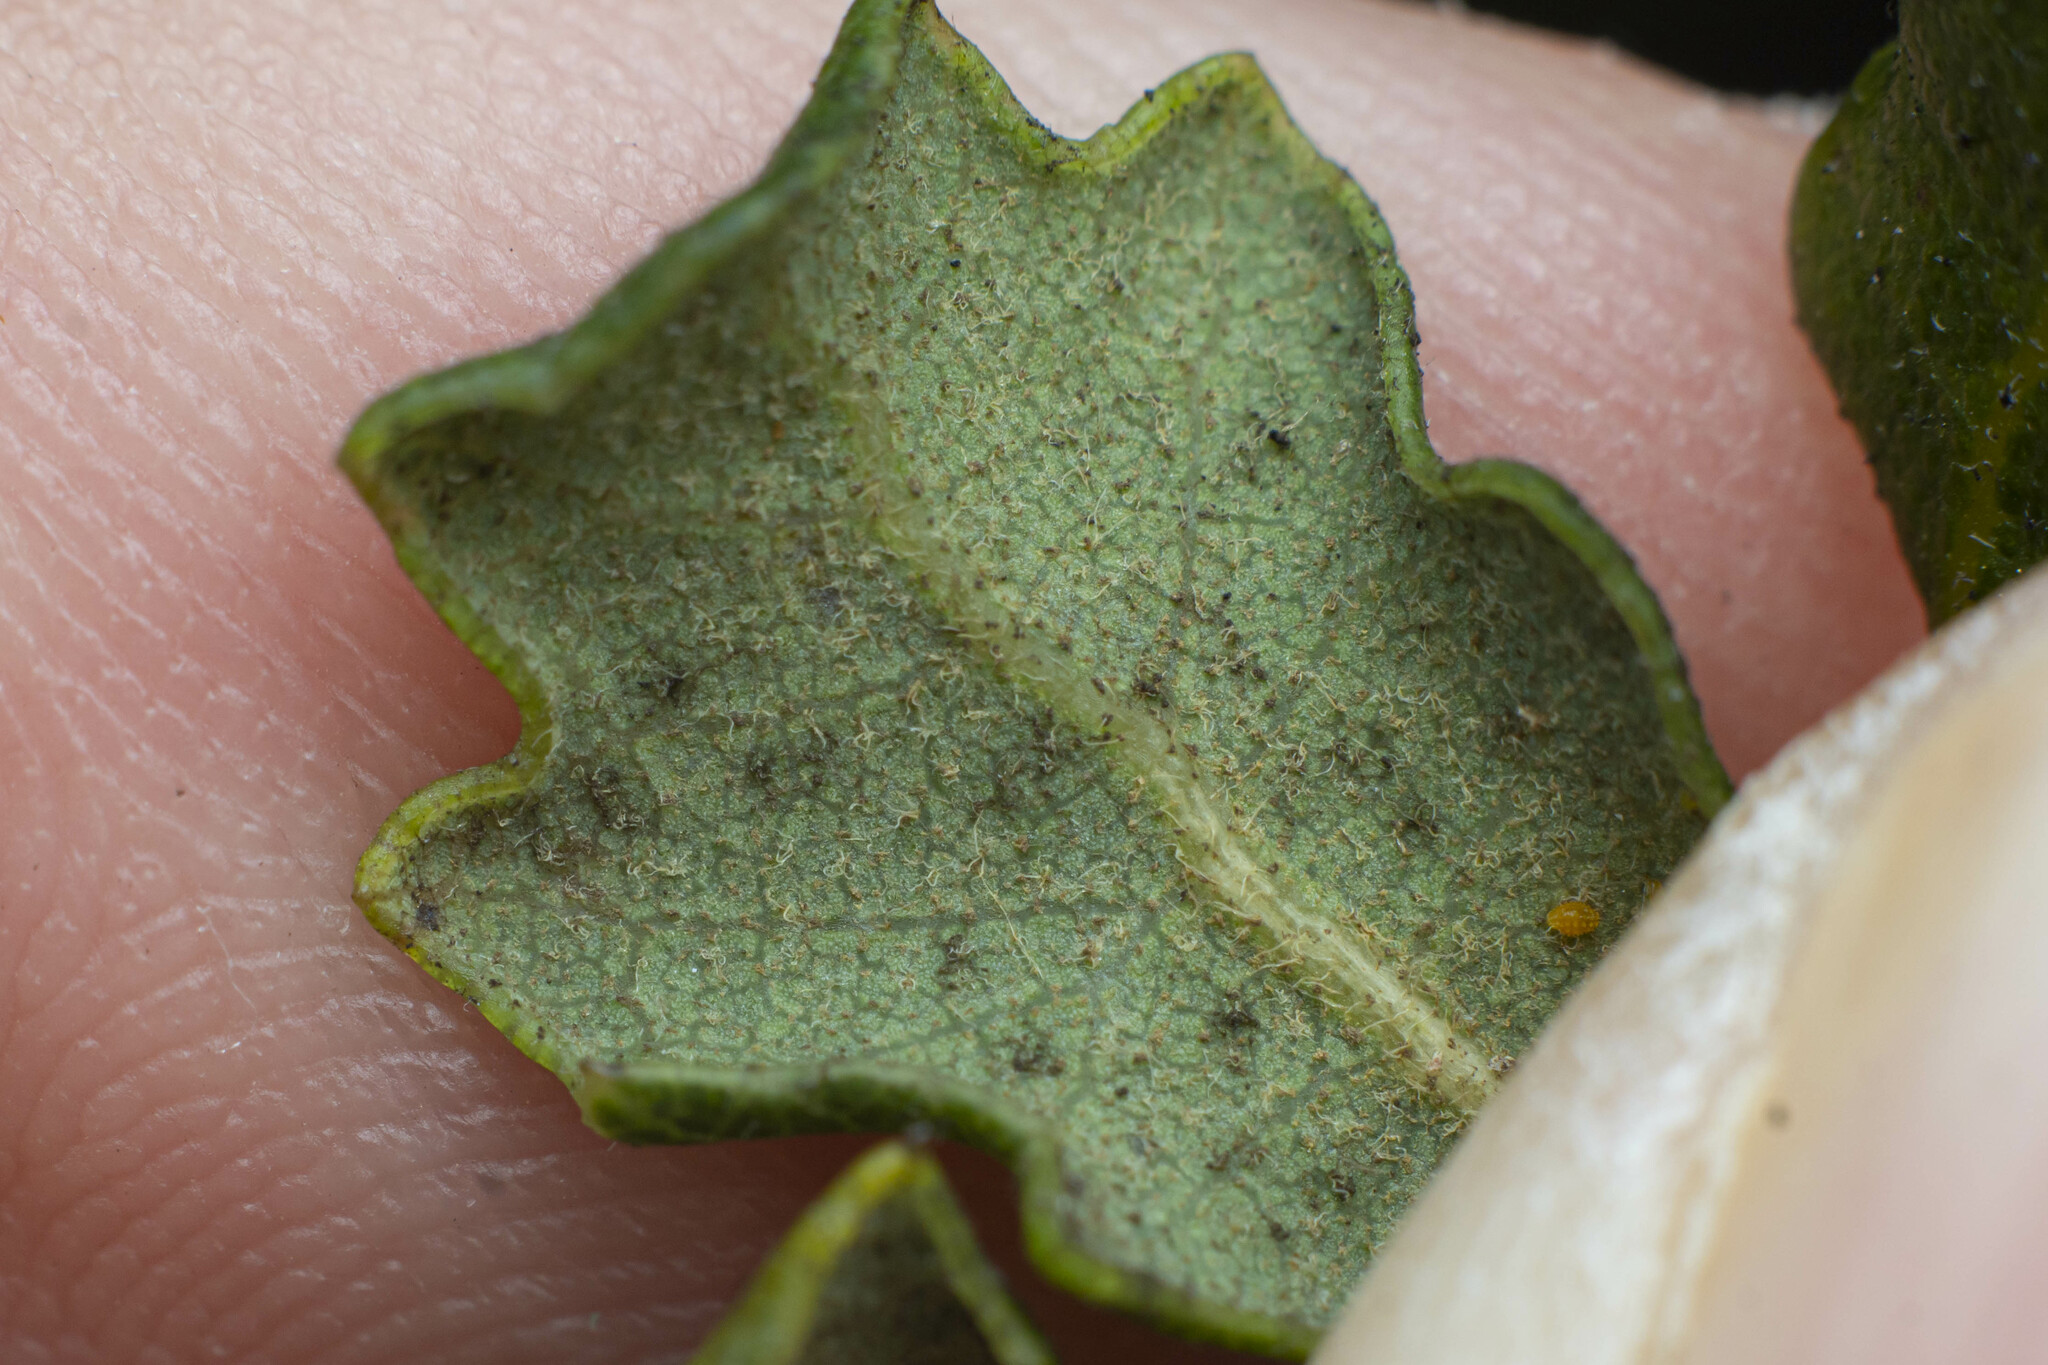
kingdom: Plantae
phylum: Tracheophyta
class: Magnoliopsida
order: Fagales
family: Fagaceae
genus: Quercus
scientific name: Quercus dumosa
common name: Coastal sage scrub oak
